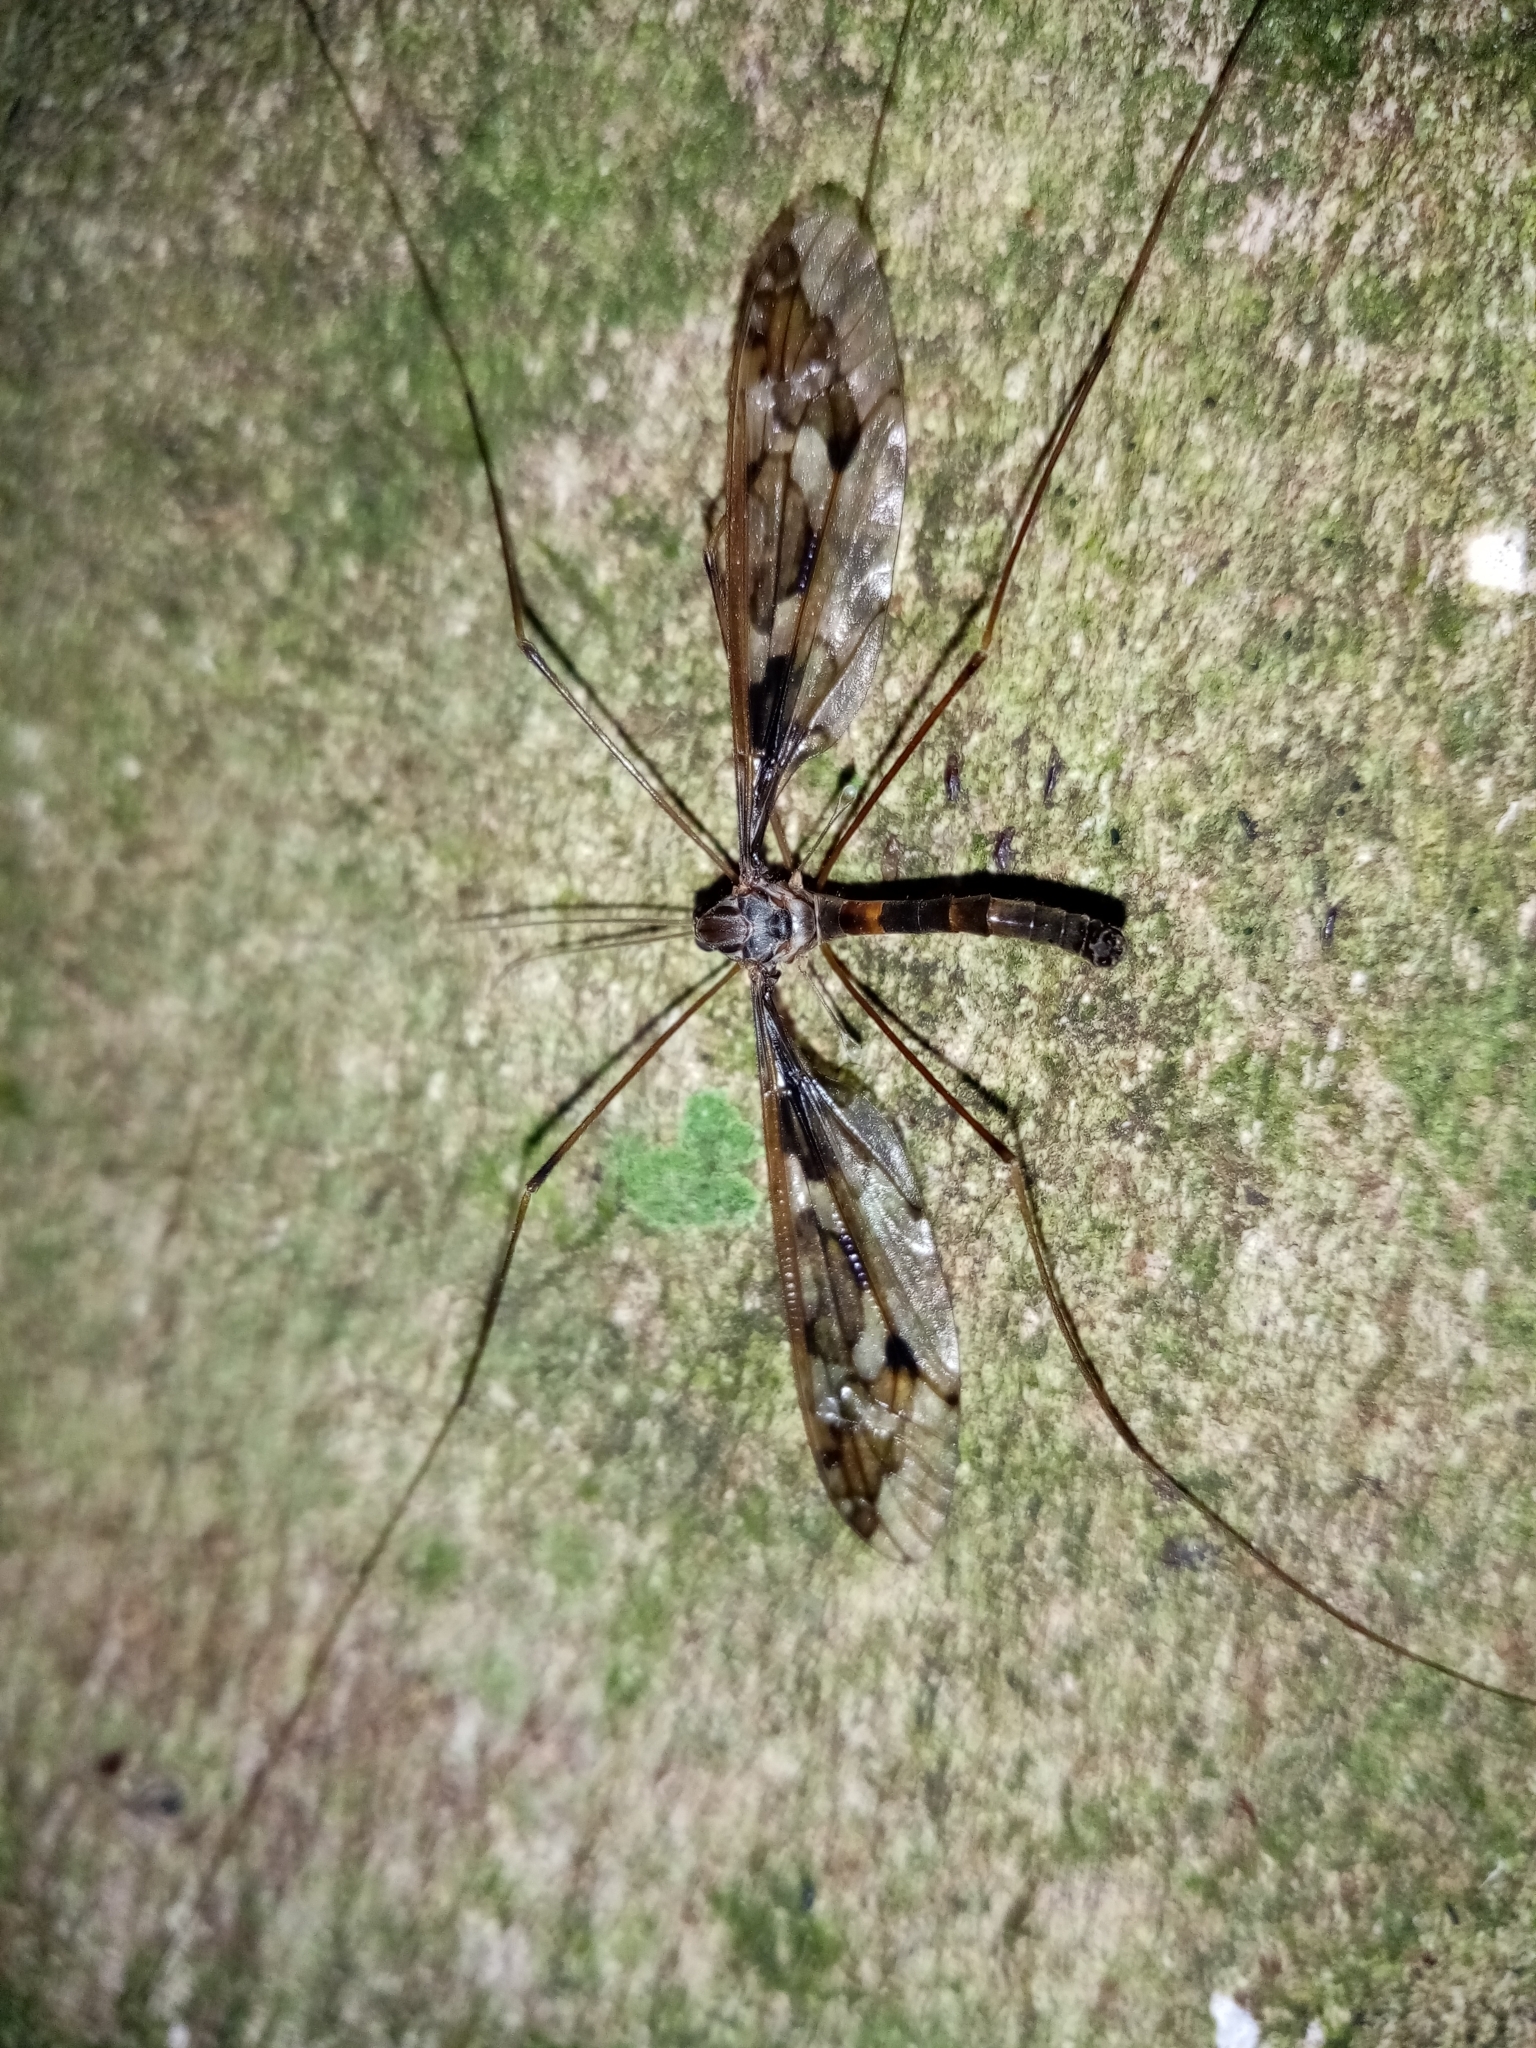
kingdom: Animalia
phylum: Arthropoda
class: Insecta
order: Diptera
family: Tipulidae
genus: Leptotarsus
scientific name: Leptotarsus binotatus
